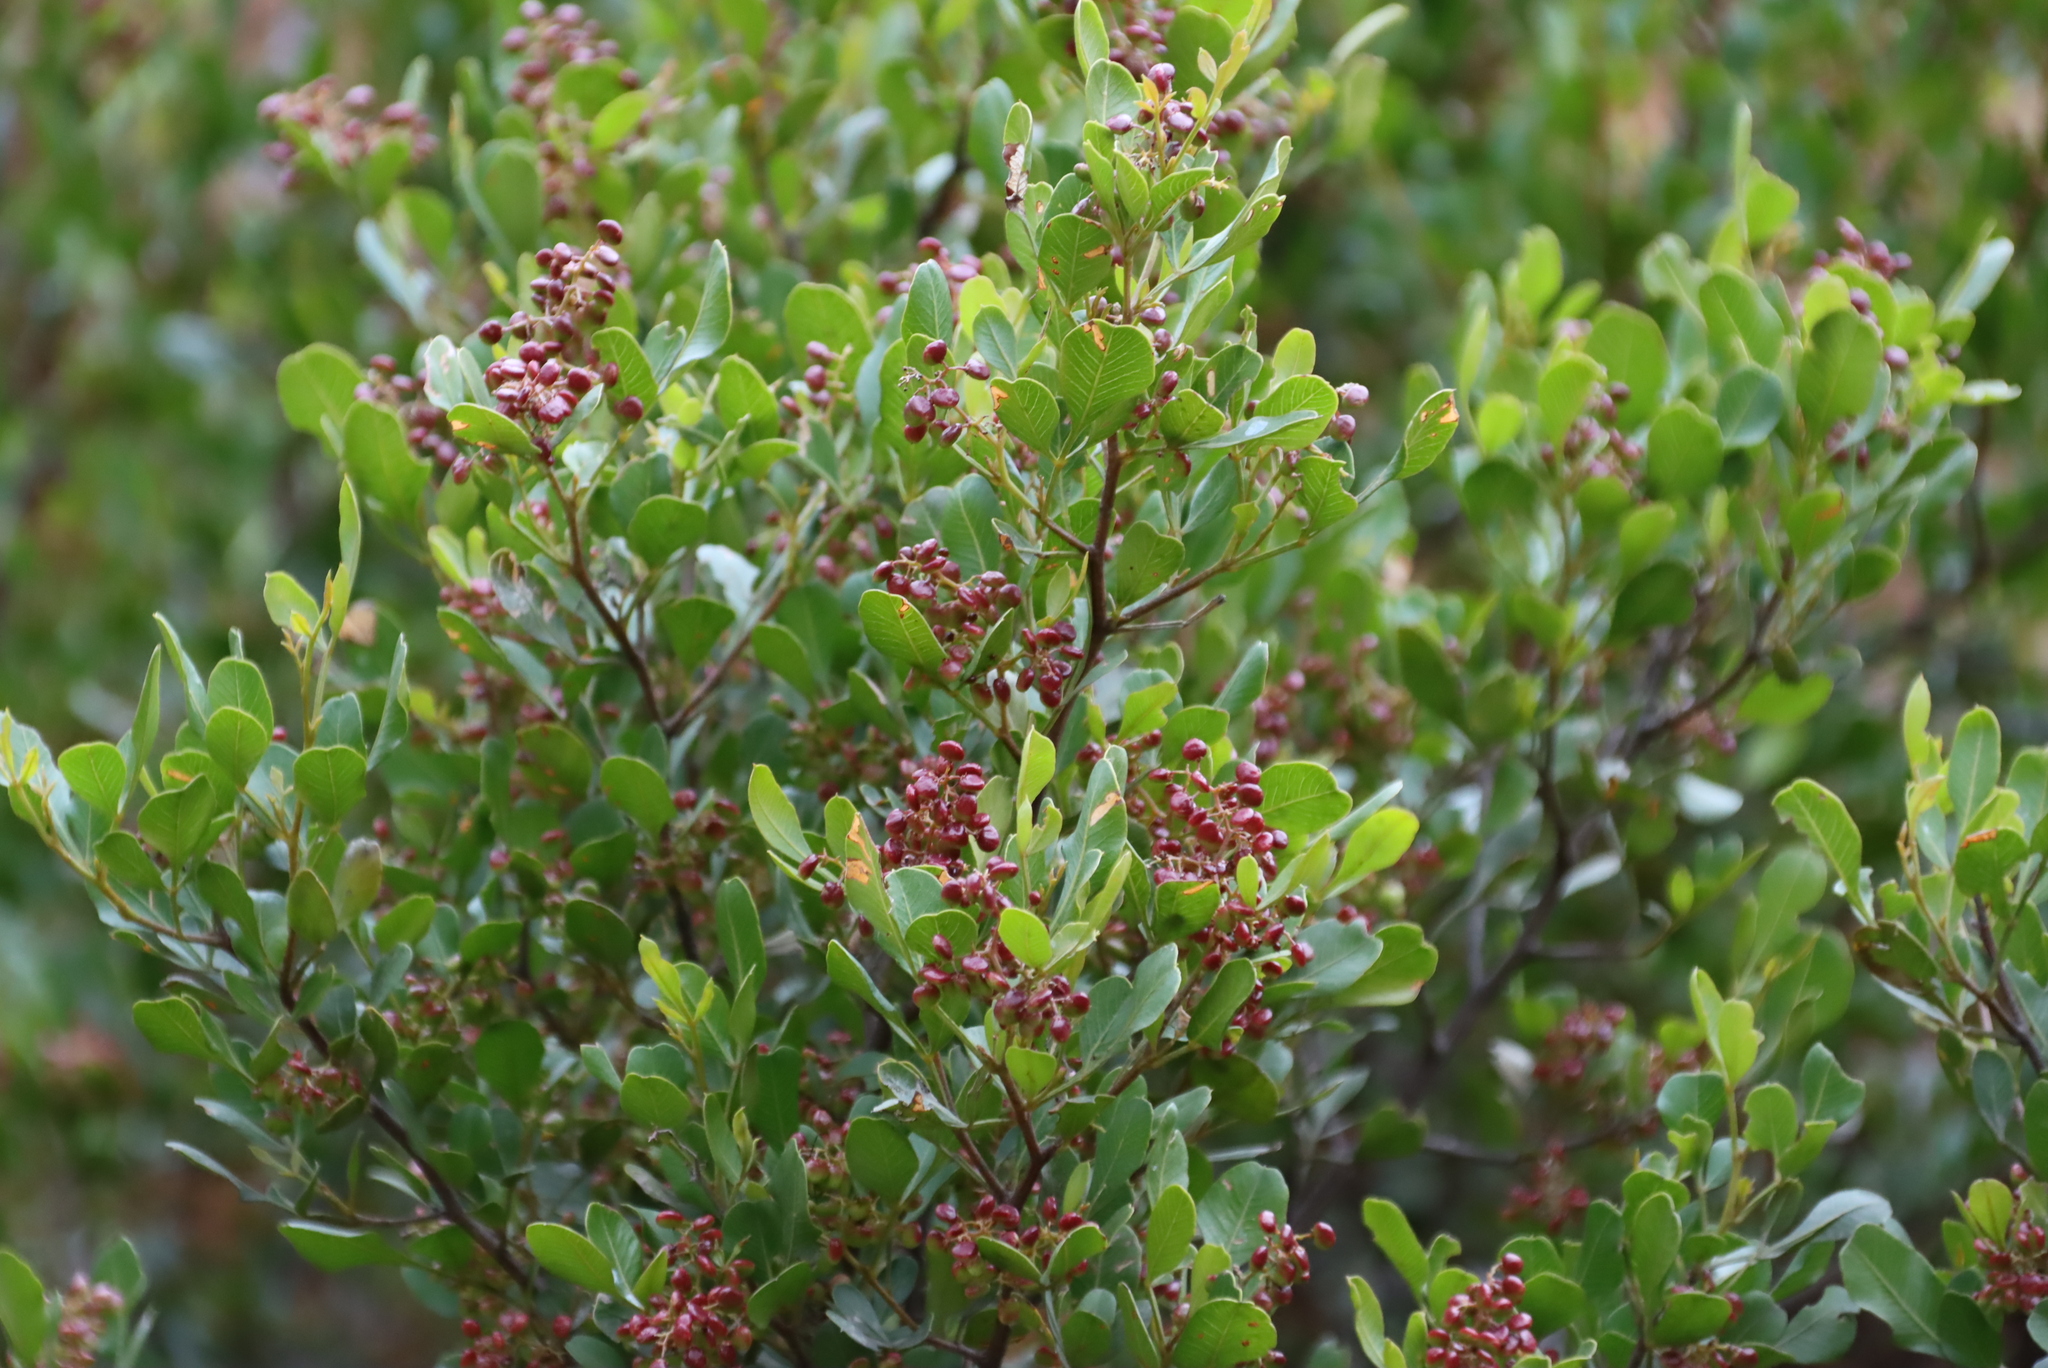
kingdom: Plantae
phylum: Tracheophyta
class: Magnoliopsida
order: Sapindales
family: Anacardiaceae
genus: Searsia
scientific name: Searsia pallens
